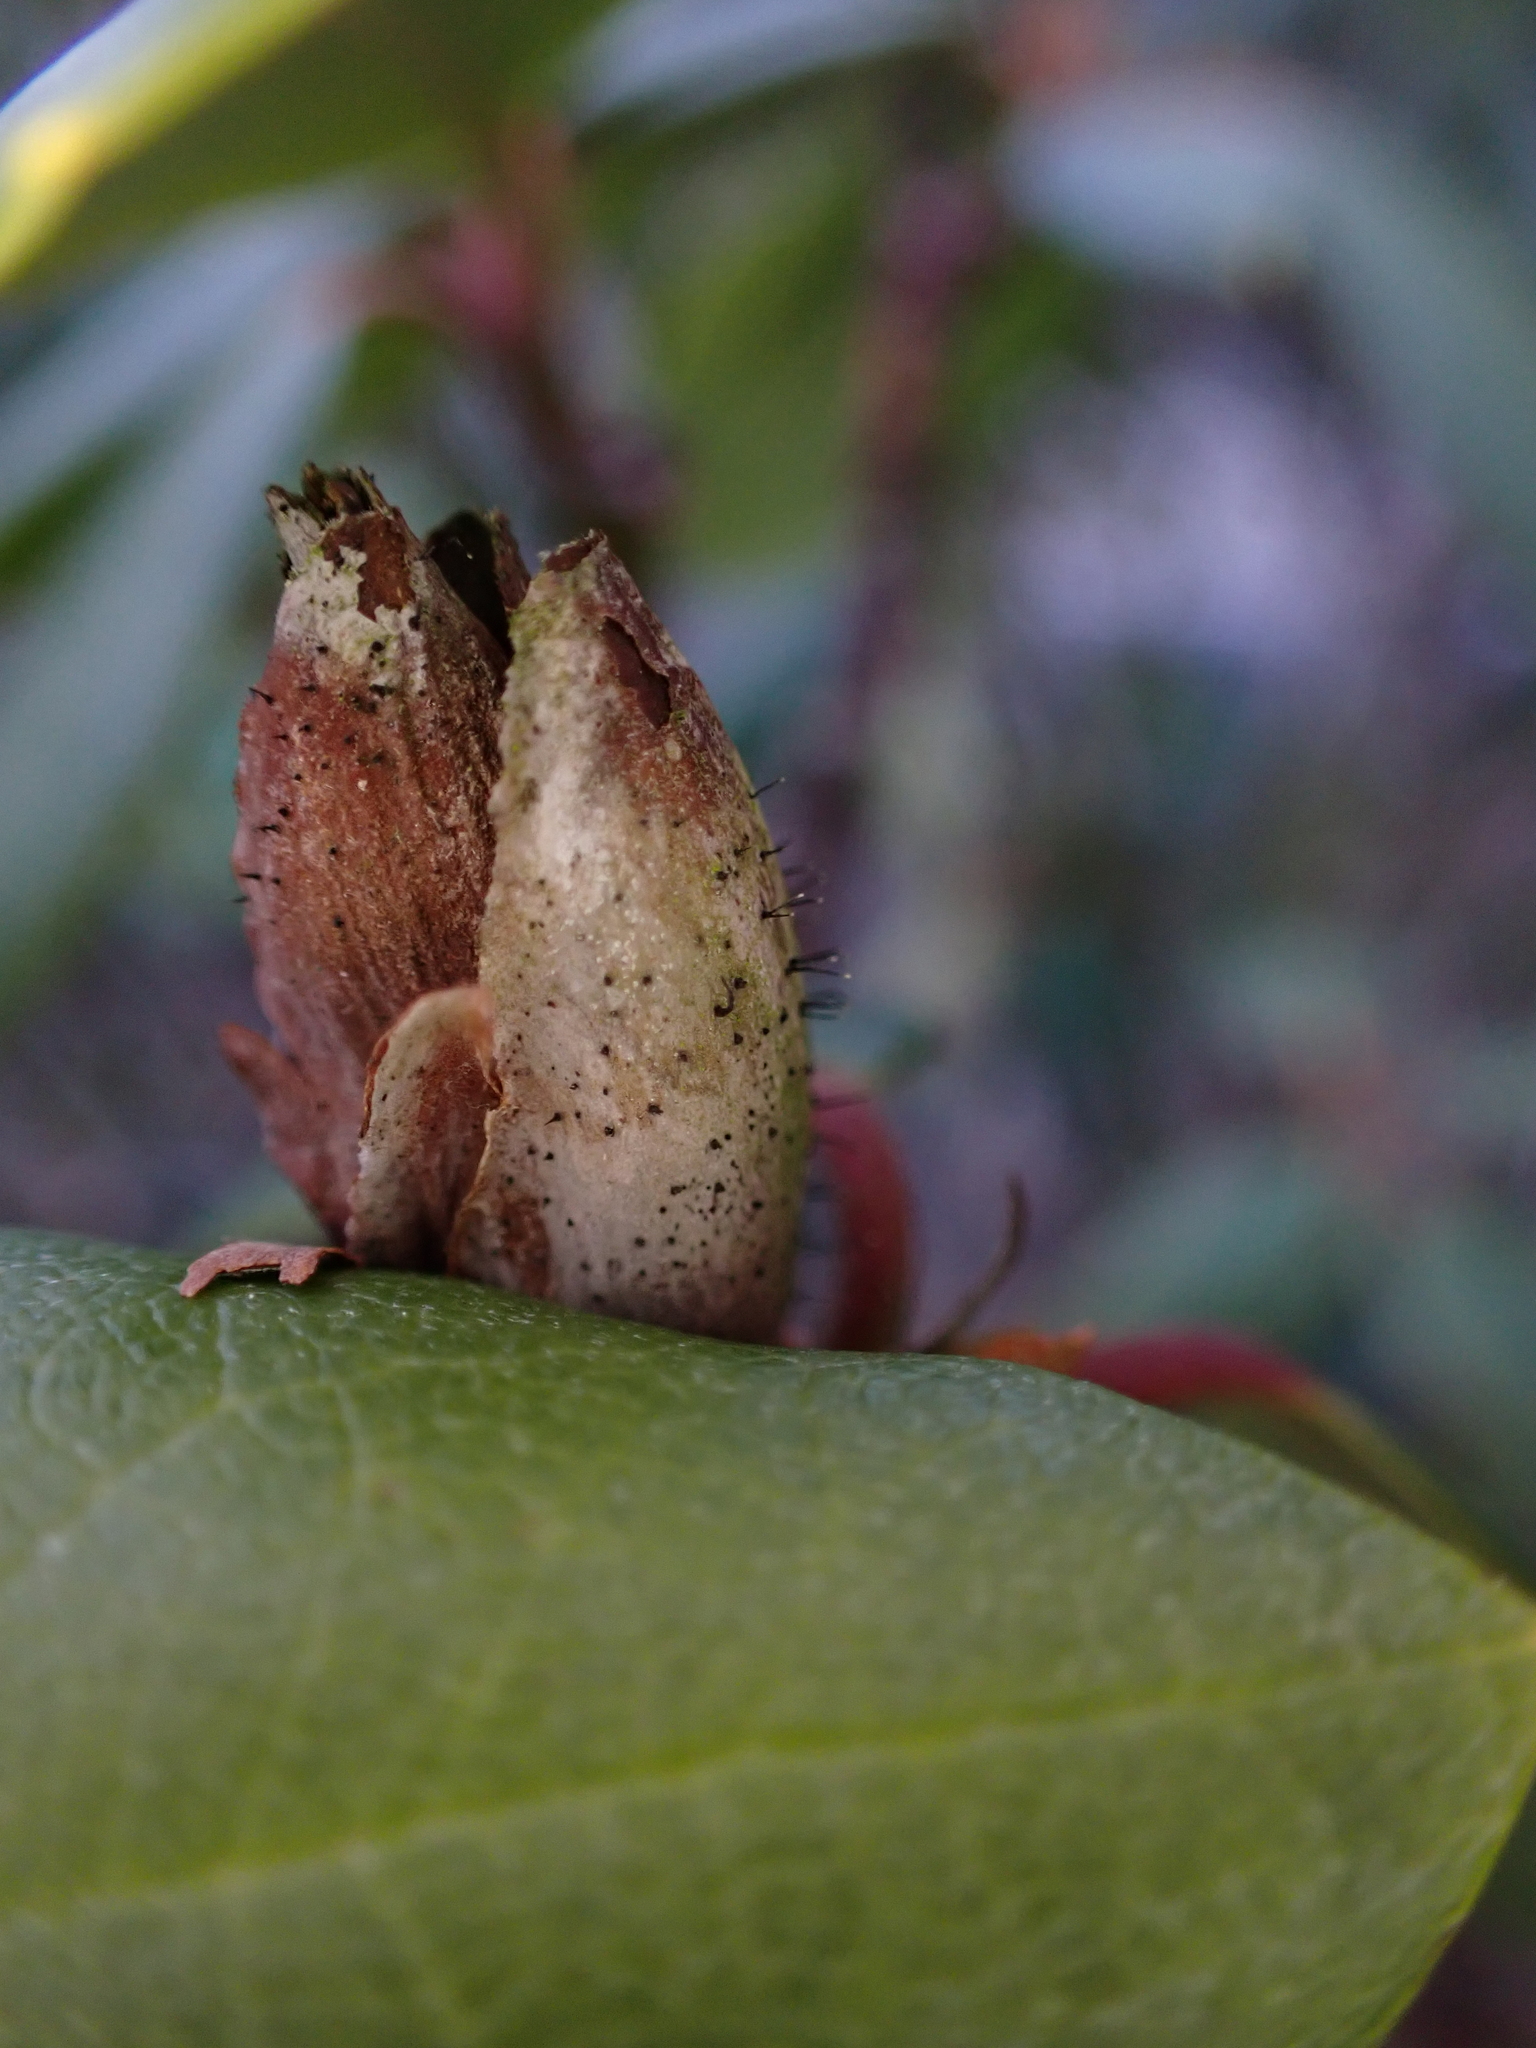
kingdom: Fungi
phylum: Ascomycota
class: Dothideomycetes
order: Pleosporales
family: Melanommataceae
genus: Seifertia
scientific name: Seifertia azaleae
